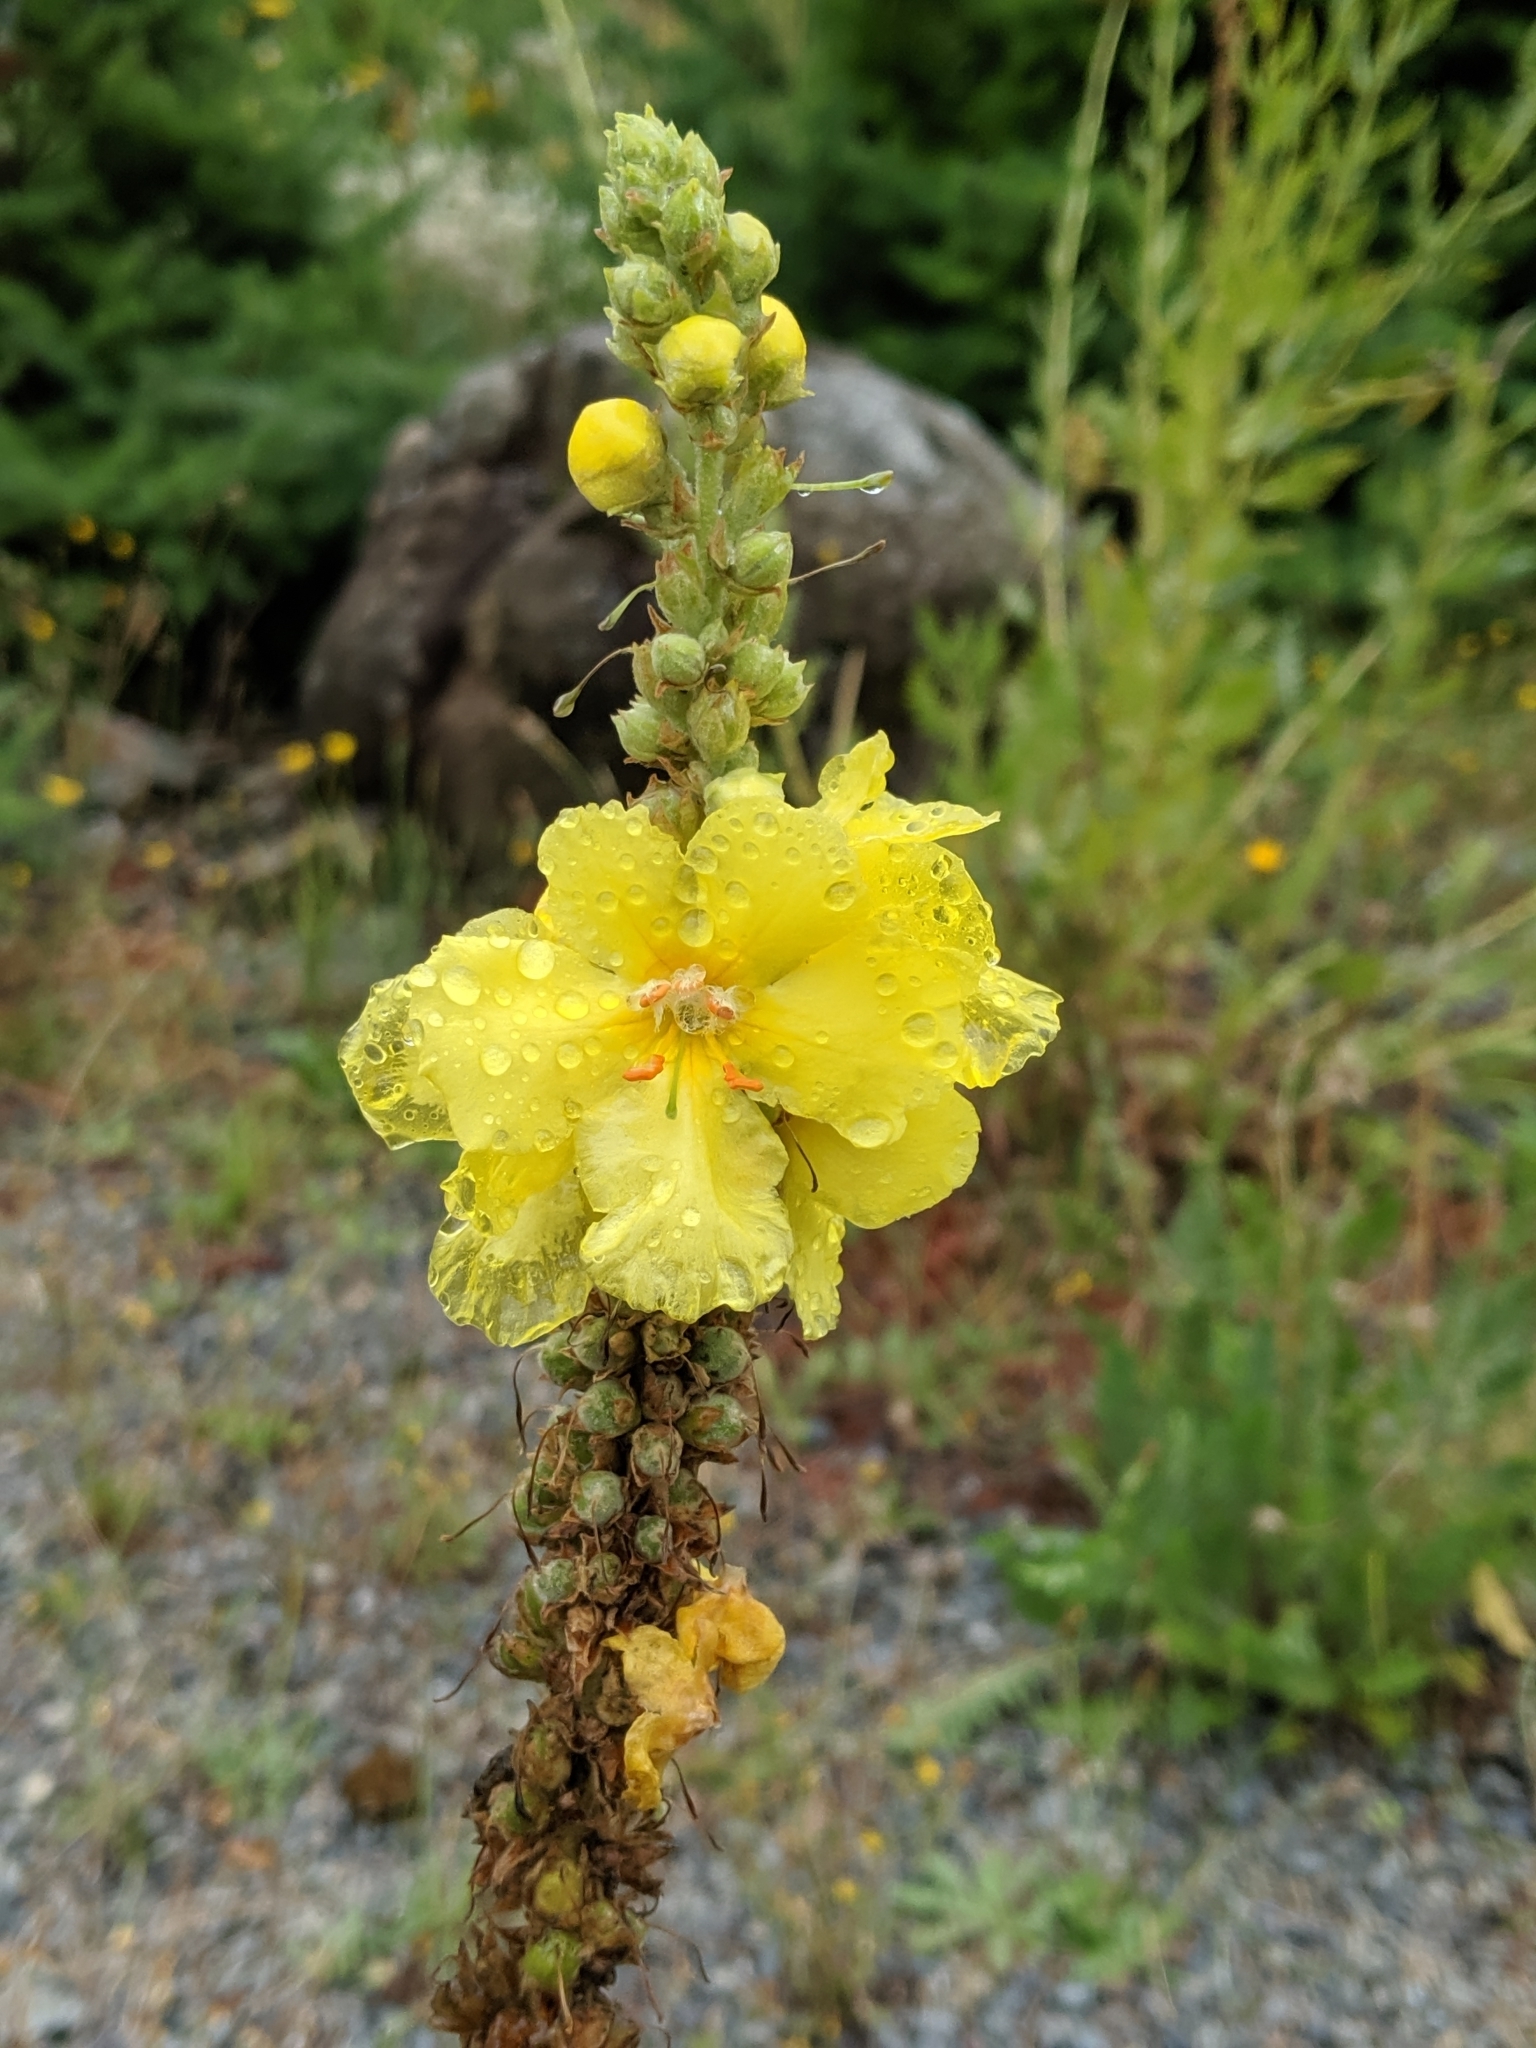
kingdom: Plantae
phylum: Tracheophyta
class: Magnoliopsida
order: Lamiales
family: Scrophulariaceae
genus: Verbascum
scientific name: Verbascum phlomoides
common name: Orange mullein
